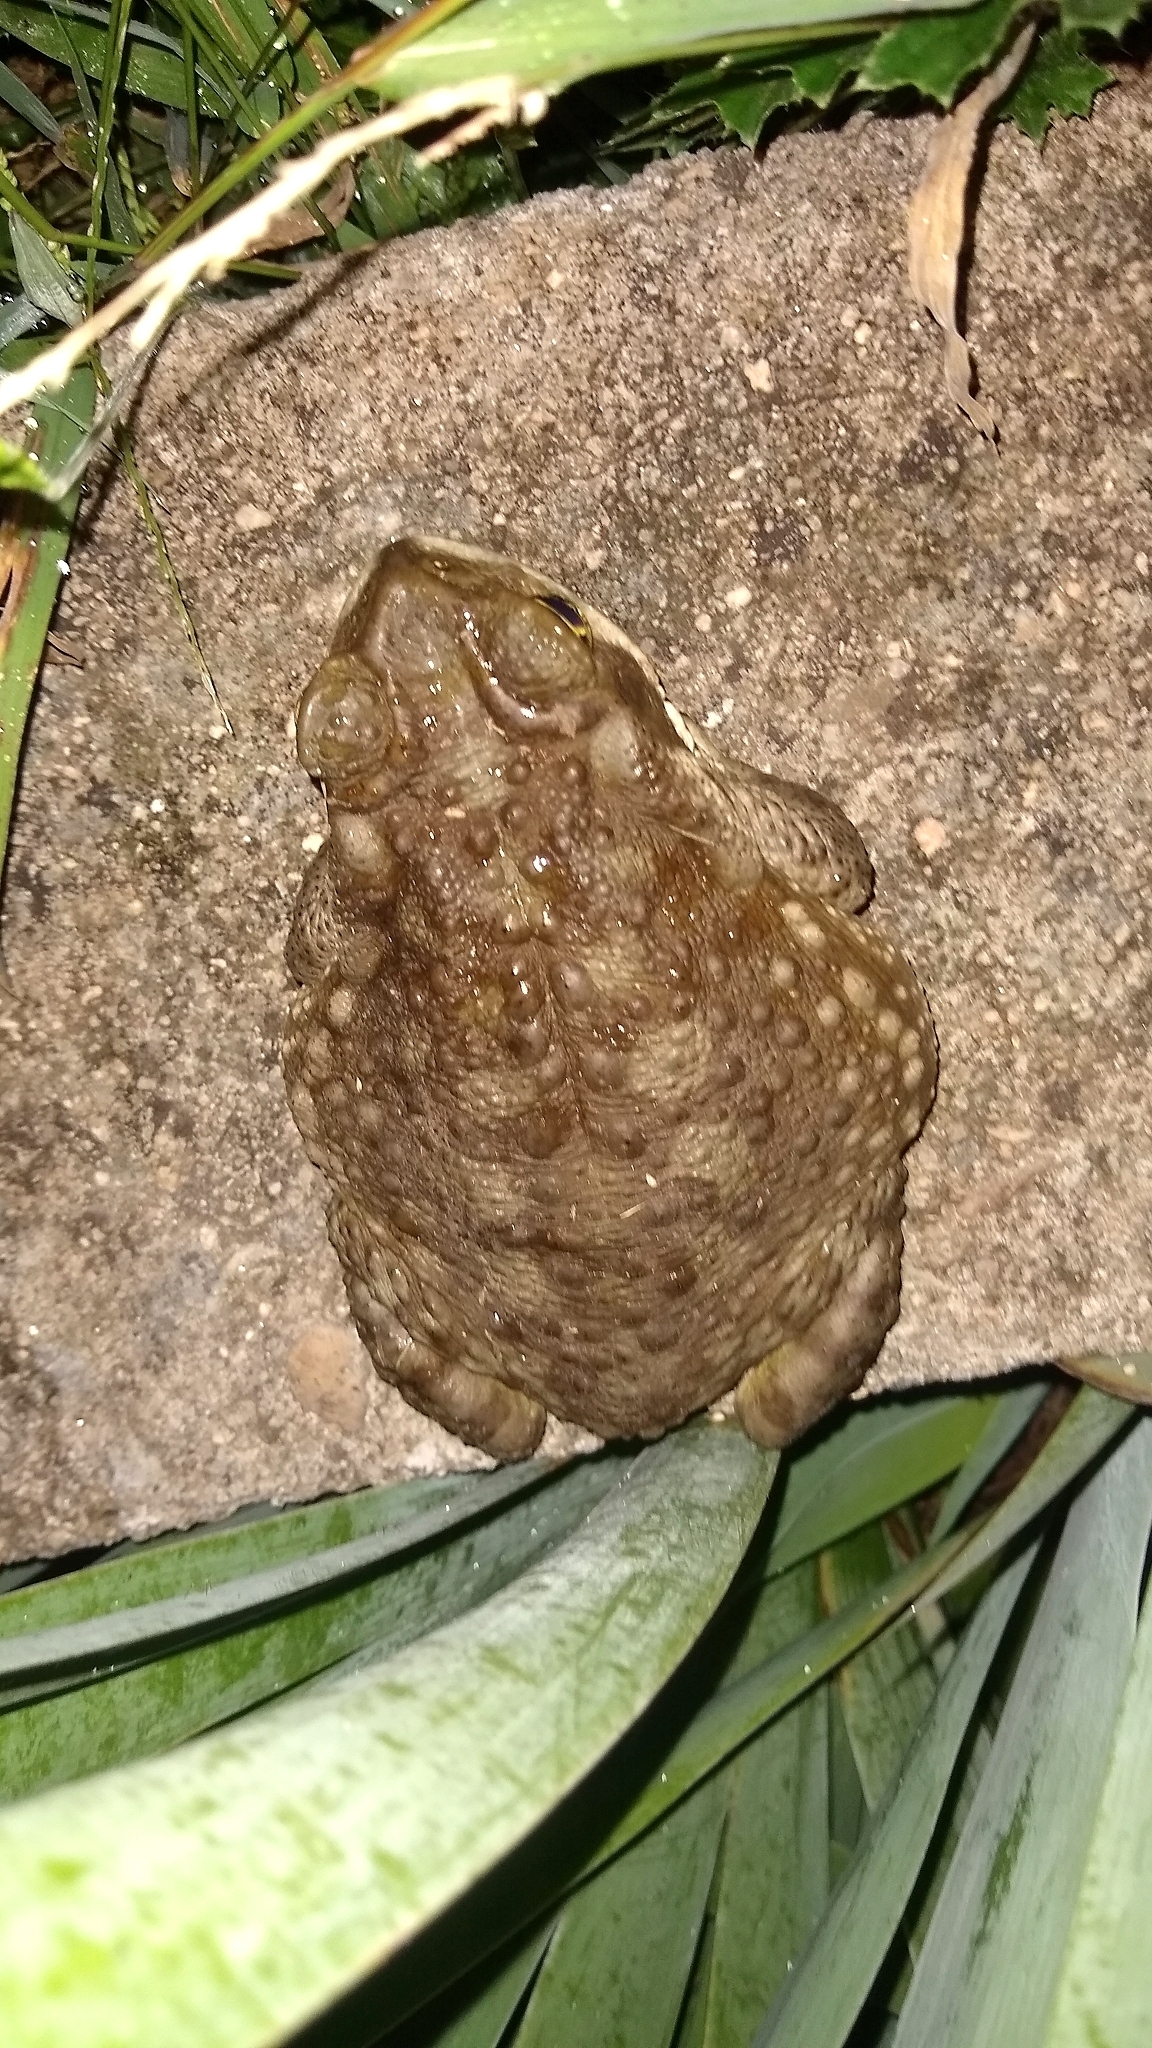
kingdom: Animalia
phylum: Chordata
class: Amphibia
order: Anura
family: Bufonidae
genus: Rhinella
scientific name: Rhinella arenarum
